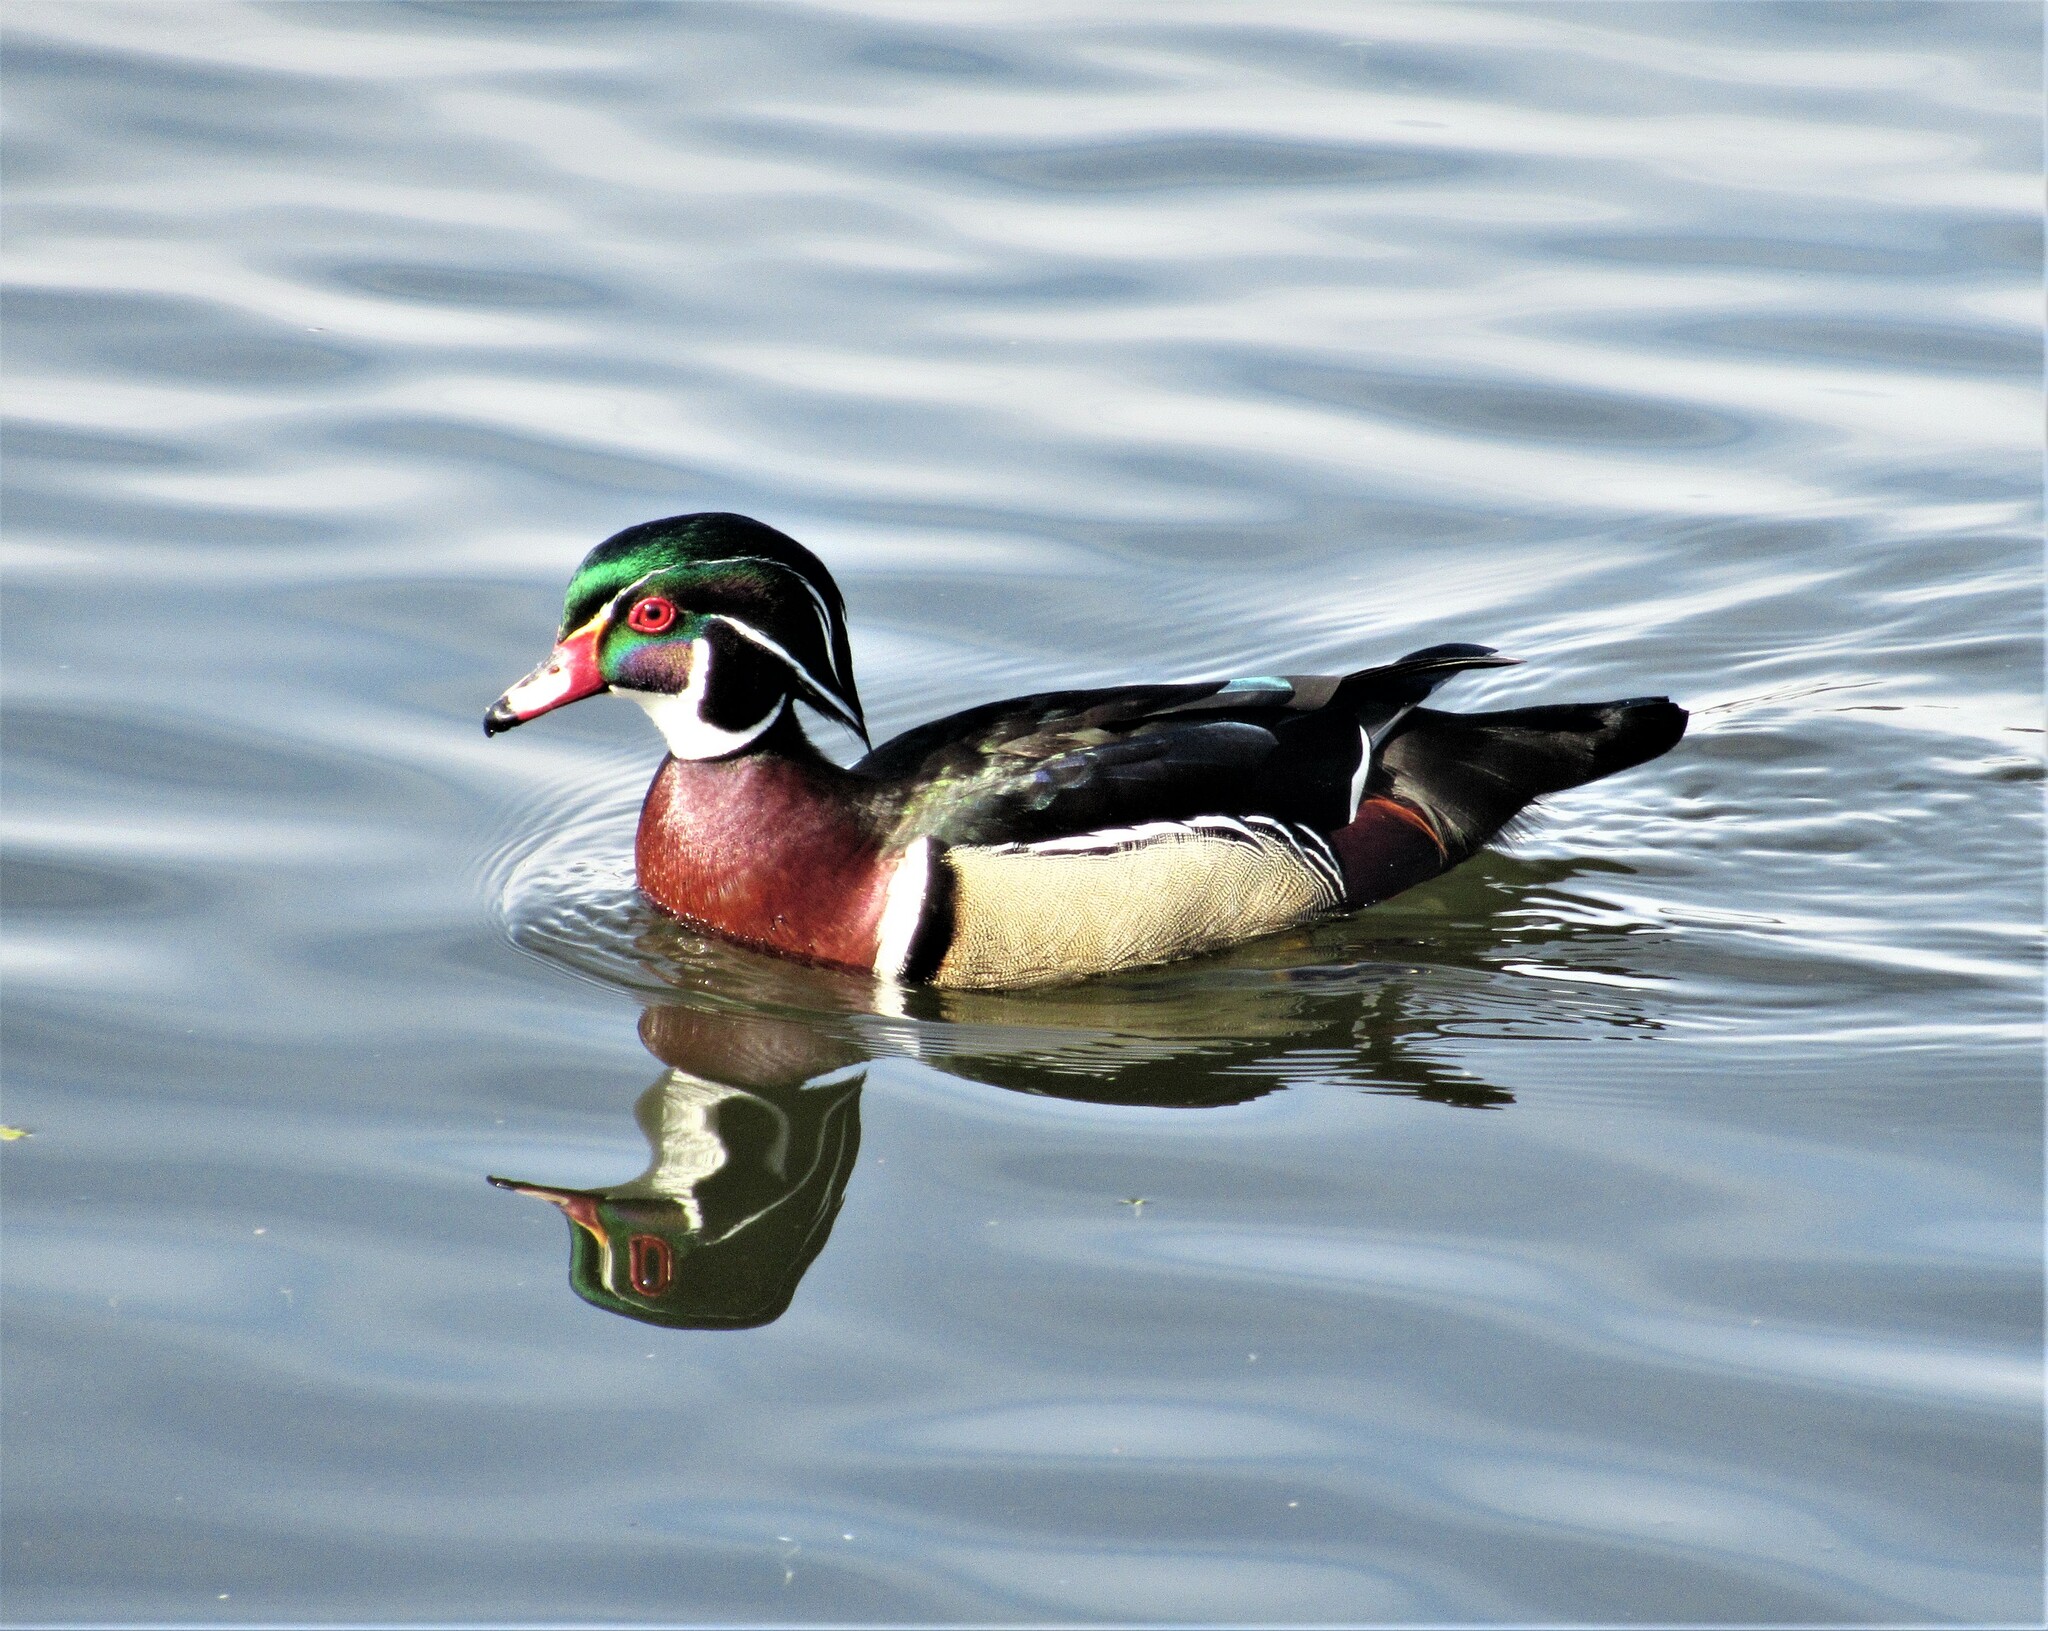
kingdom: Animalia
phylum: Chordata
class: Aves
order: Anseriformes
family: Anatidae
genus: Aix
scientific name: Aix sponsa
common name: Wood duck
